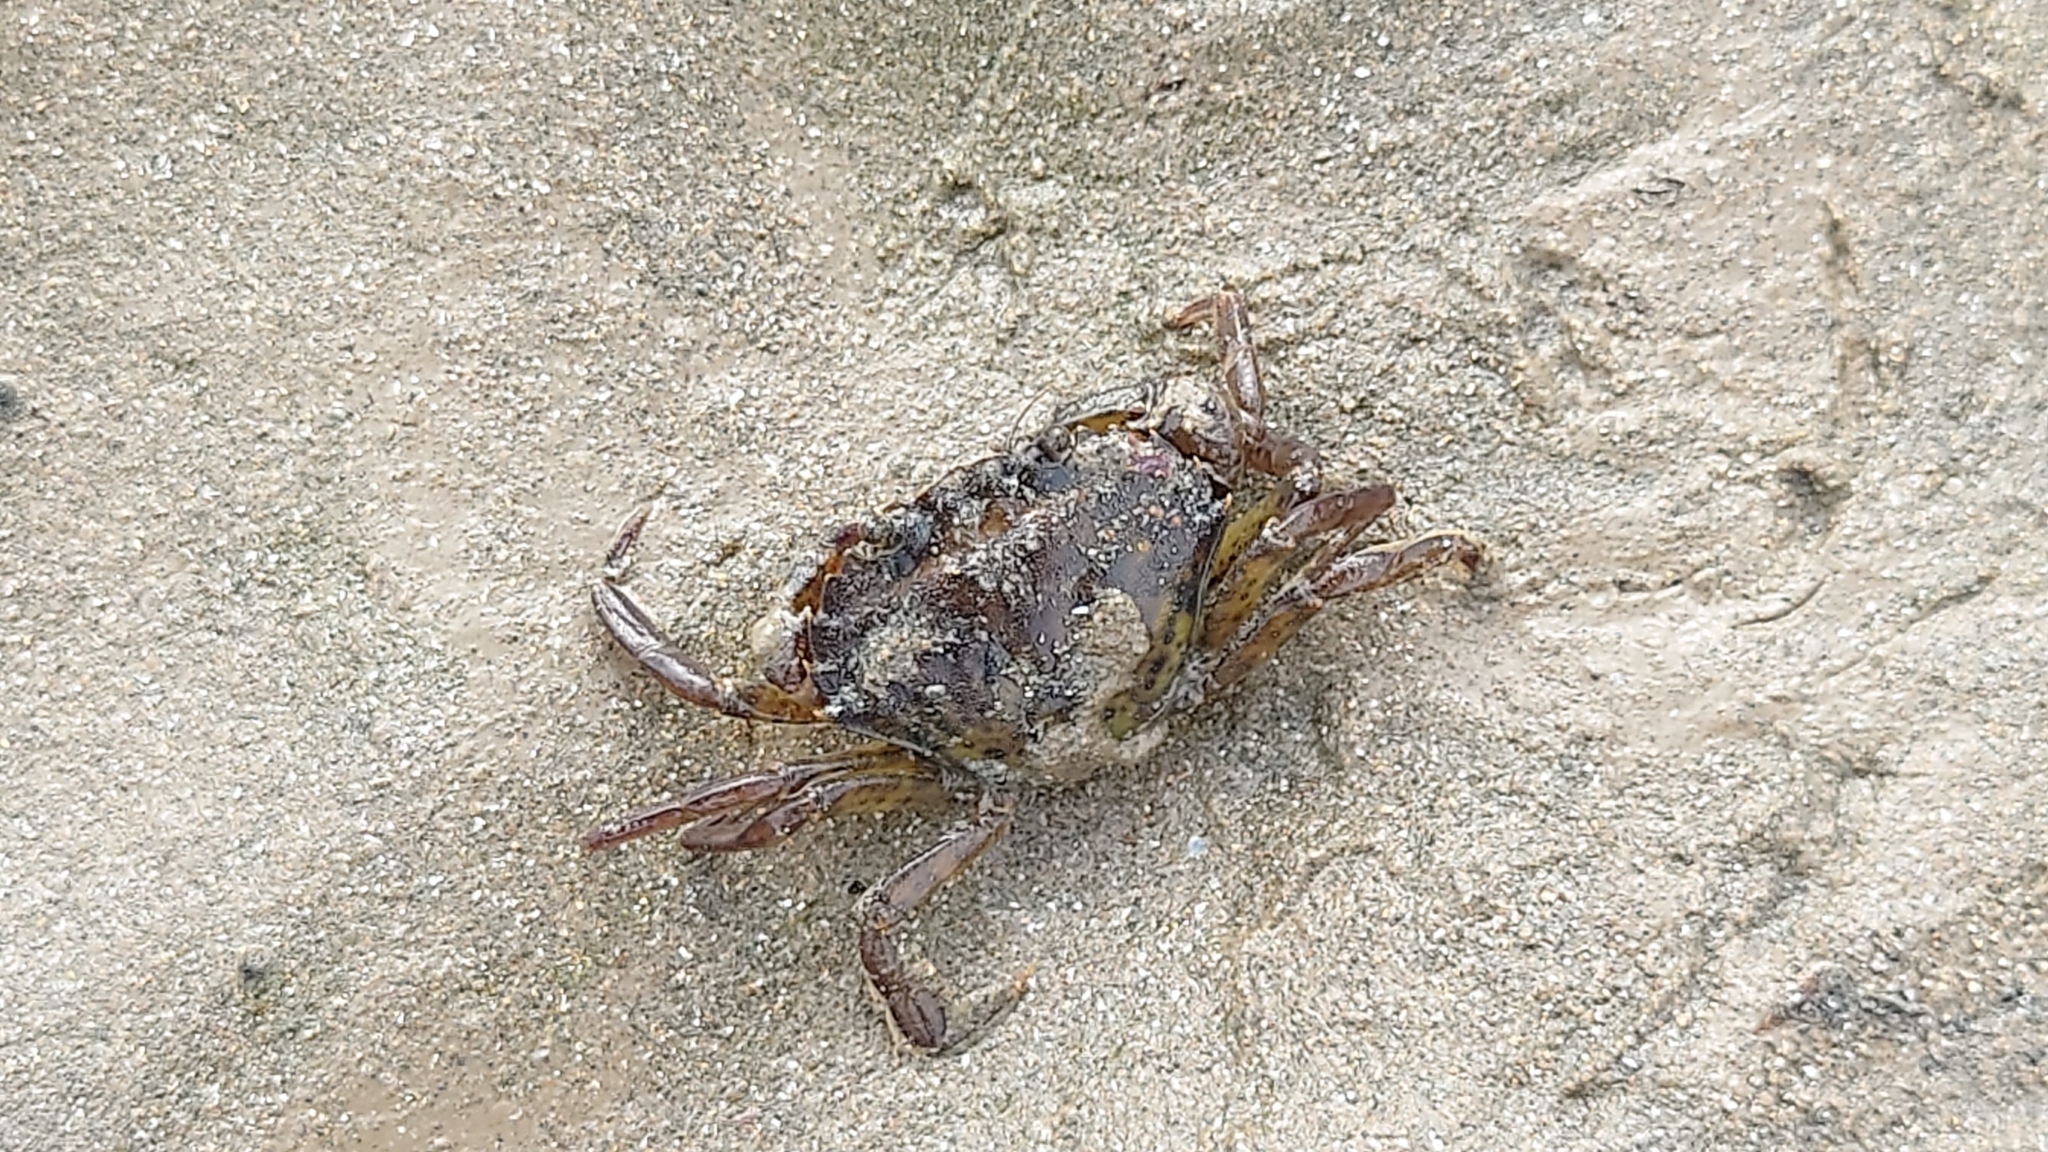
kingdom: Animalia
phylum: Arthropoda
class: Malacostraca
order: Decapoda
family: Carcinidae
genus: Carcinus
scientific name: Carcinus maenas
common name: European green crab
